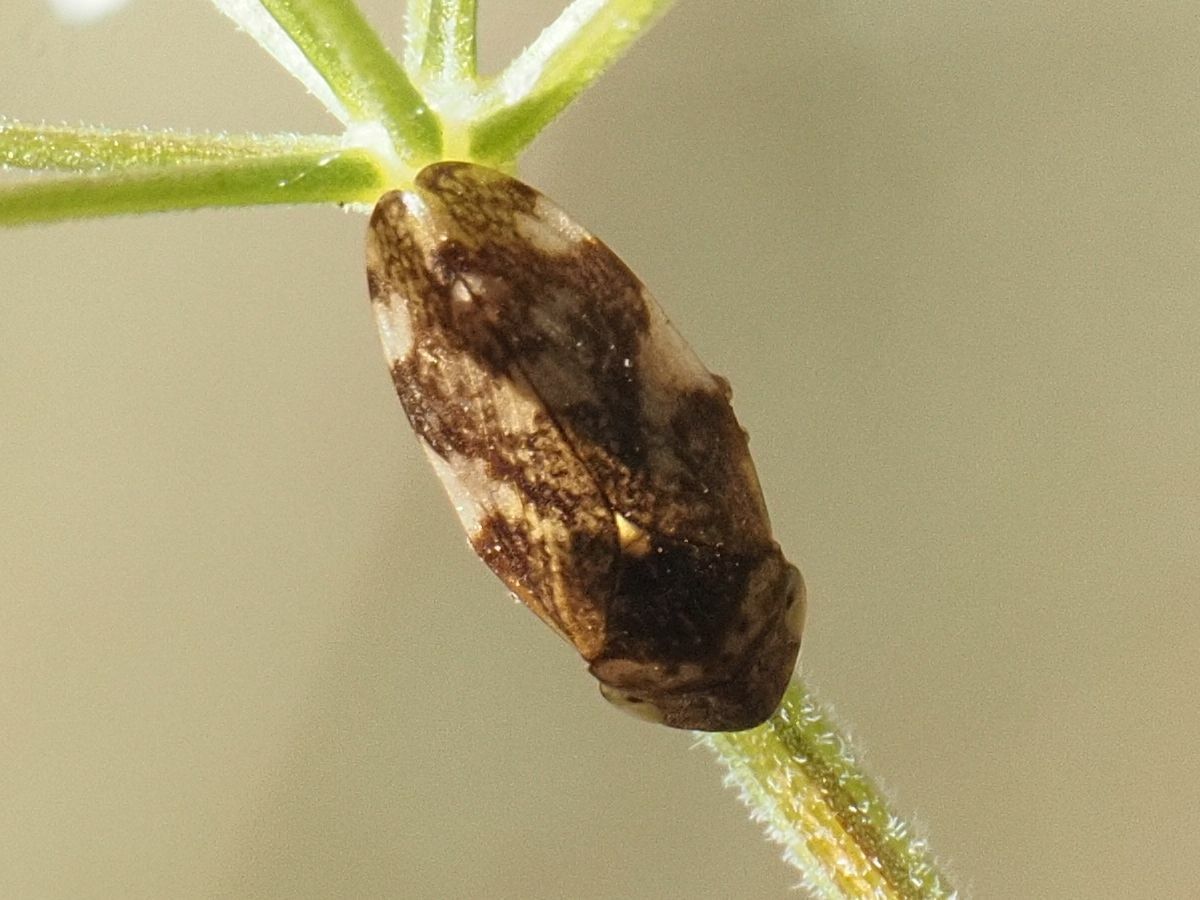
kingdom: Animalia
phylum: Arthropoda
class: Insecta
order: Hemiptera
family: Aphrophoridae
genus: Philaenus
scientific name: Philaenus spumarius
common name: Meadow spittlebug
